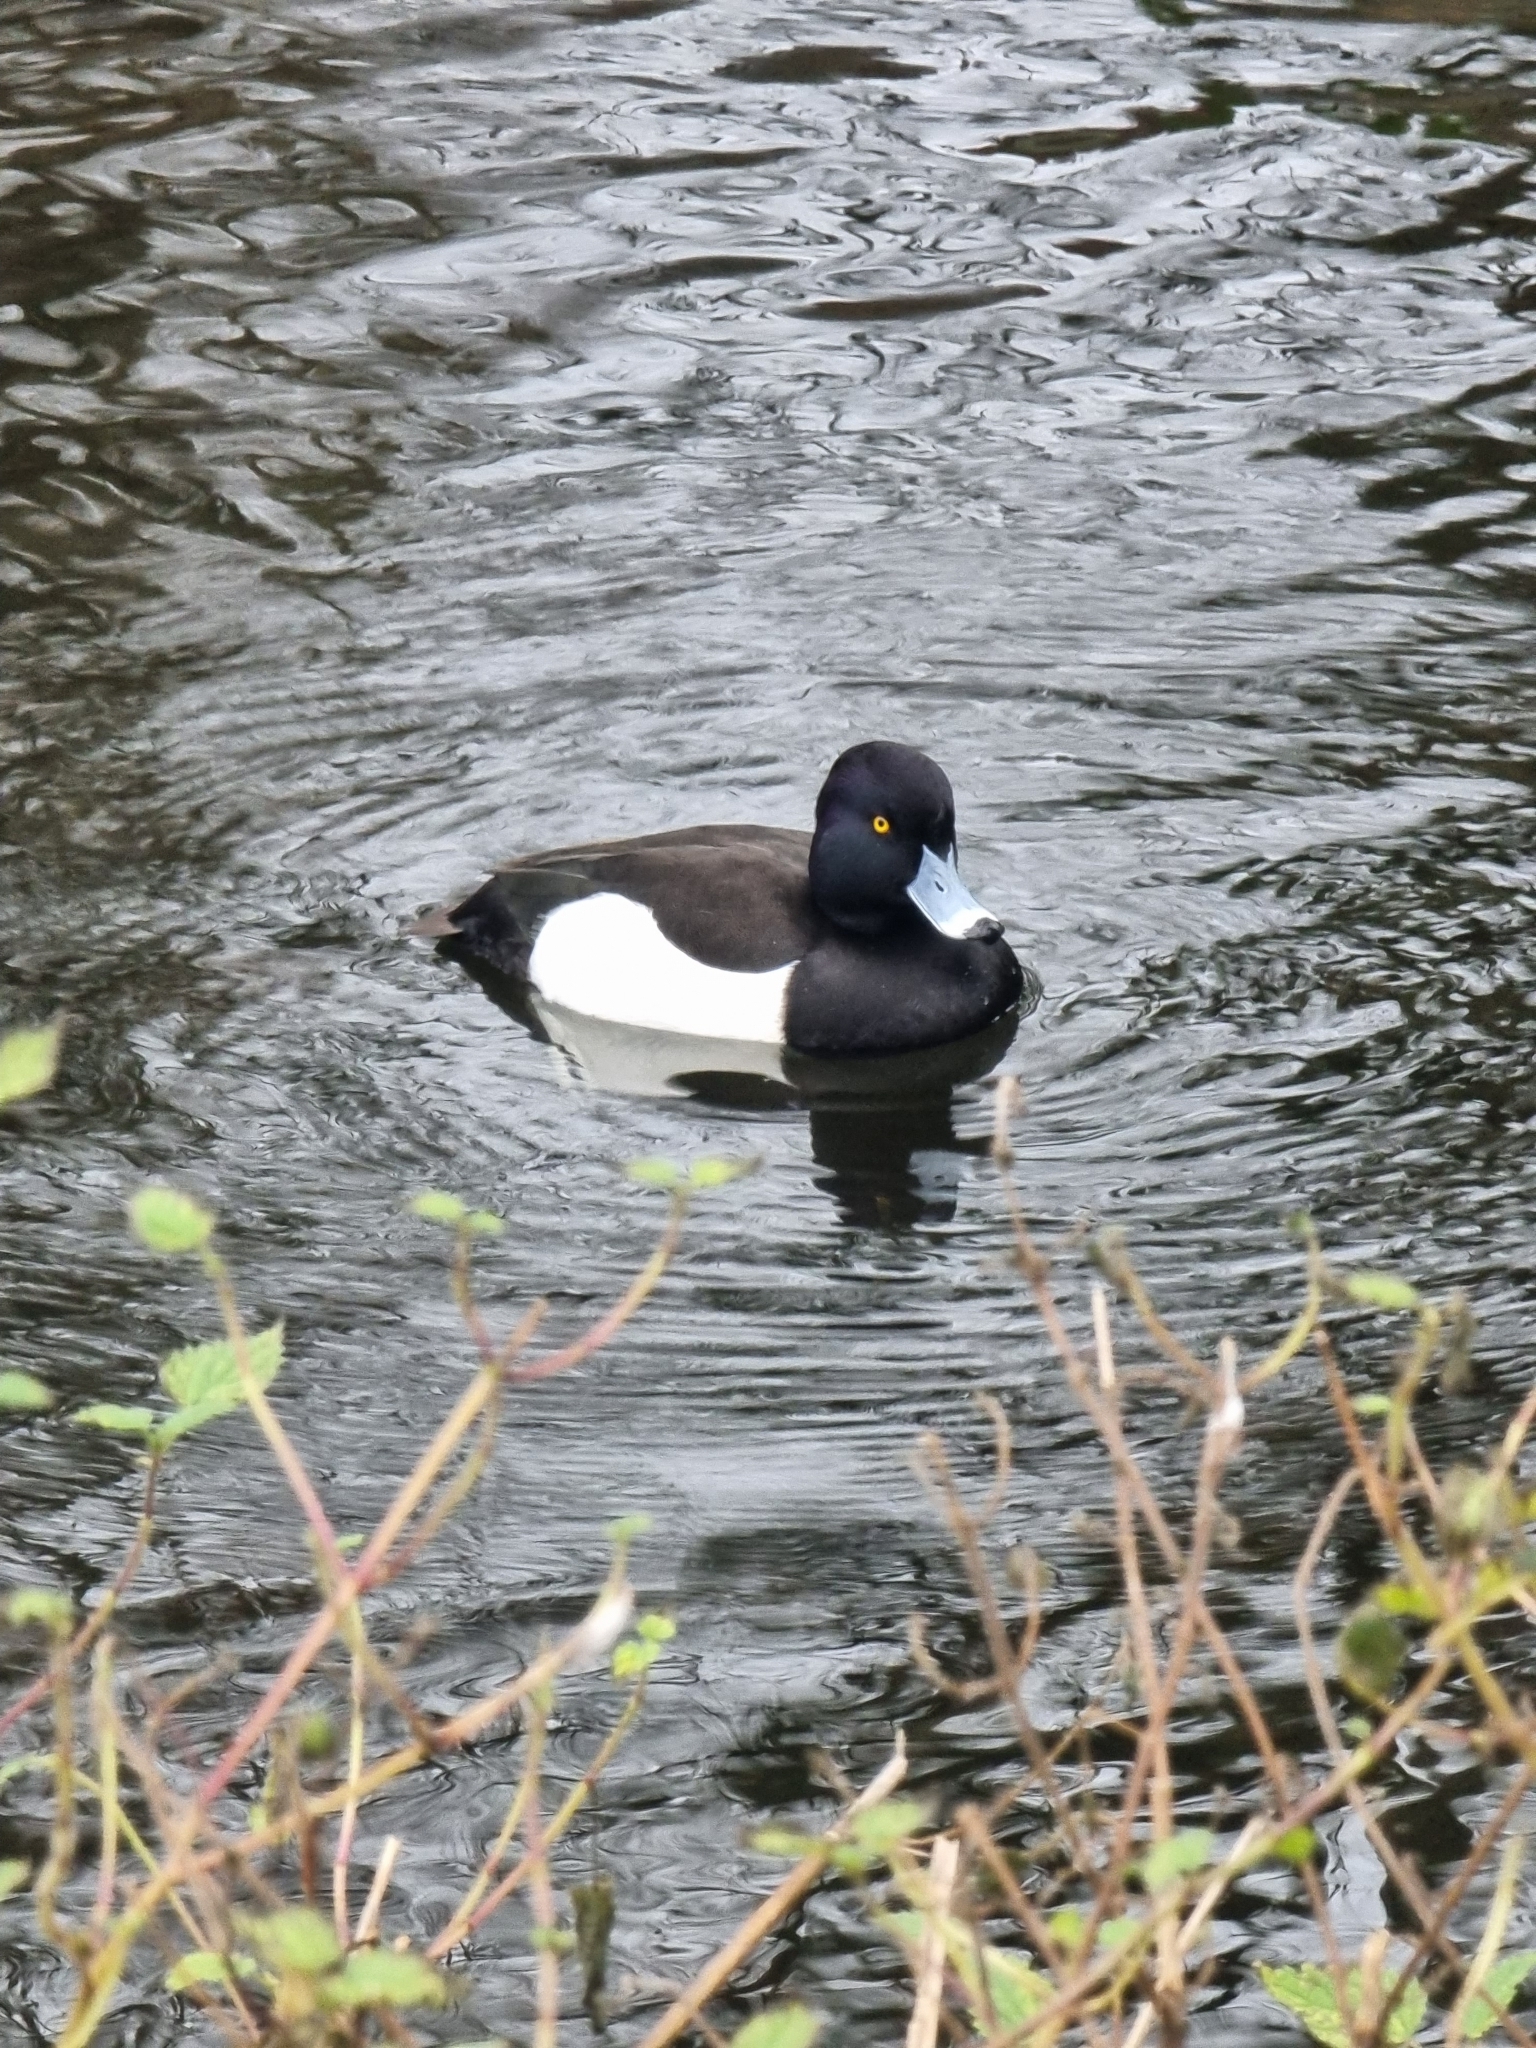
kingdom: Animalia
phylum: Chordata
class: Aves
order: Anseriformes
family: Anatidae
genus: Aythya
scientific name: Aythya fuligula
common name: Tufted duck
